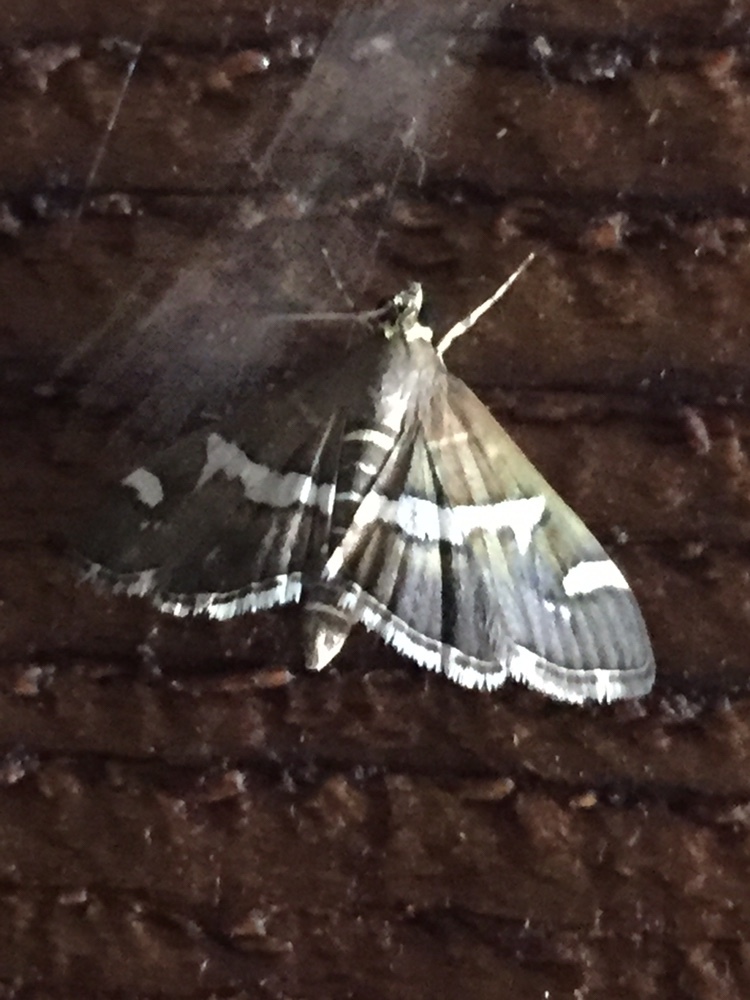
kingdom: Animalia
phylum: Arthropoda
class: Insecta
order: Lepidoptera
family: Crambidae
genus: Spoladea
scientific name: Spoladea recurvalis
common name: Beet webworm moth
